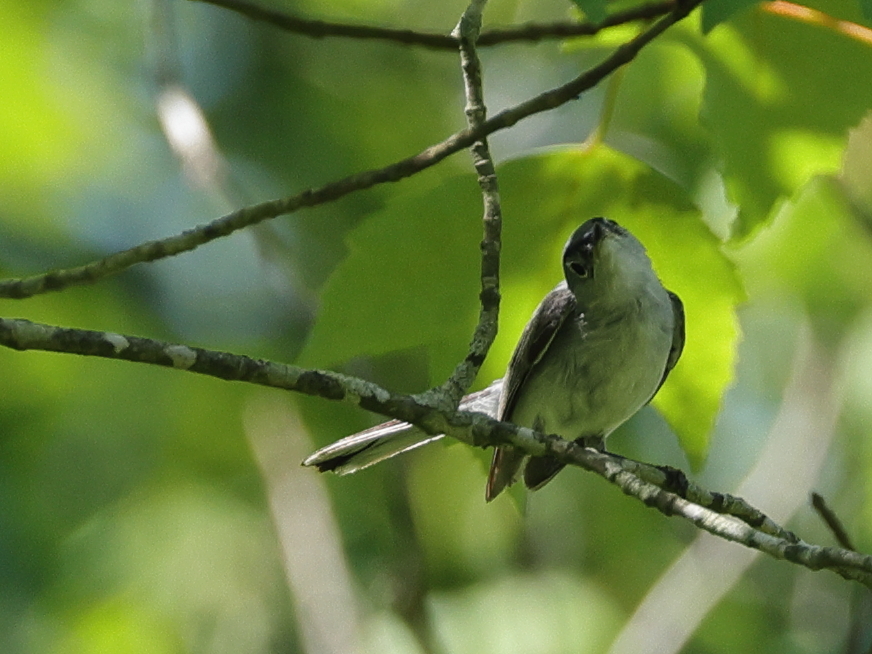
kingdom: Animalia
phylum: Chordata
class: Aves
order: Passeriformes
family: Polioptilidae
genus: Polioptila
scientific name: Polioptila caerulea
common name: Blue-gray gnatcatcher
